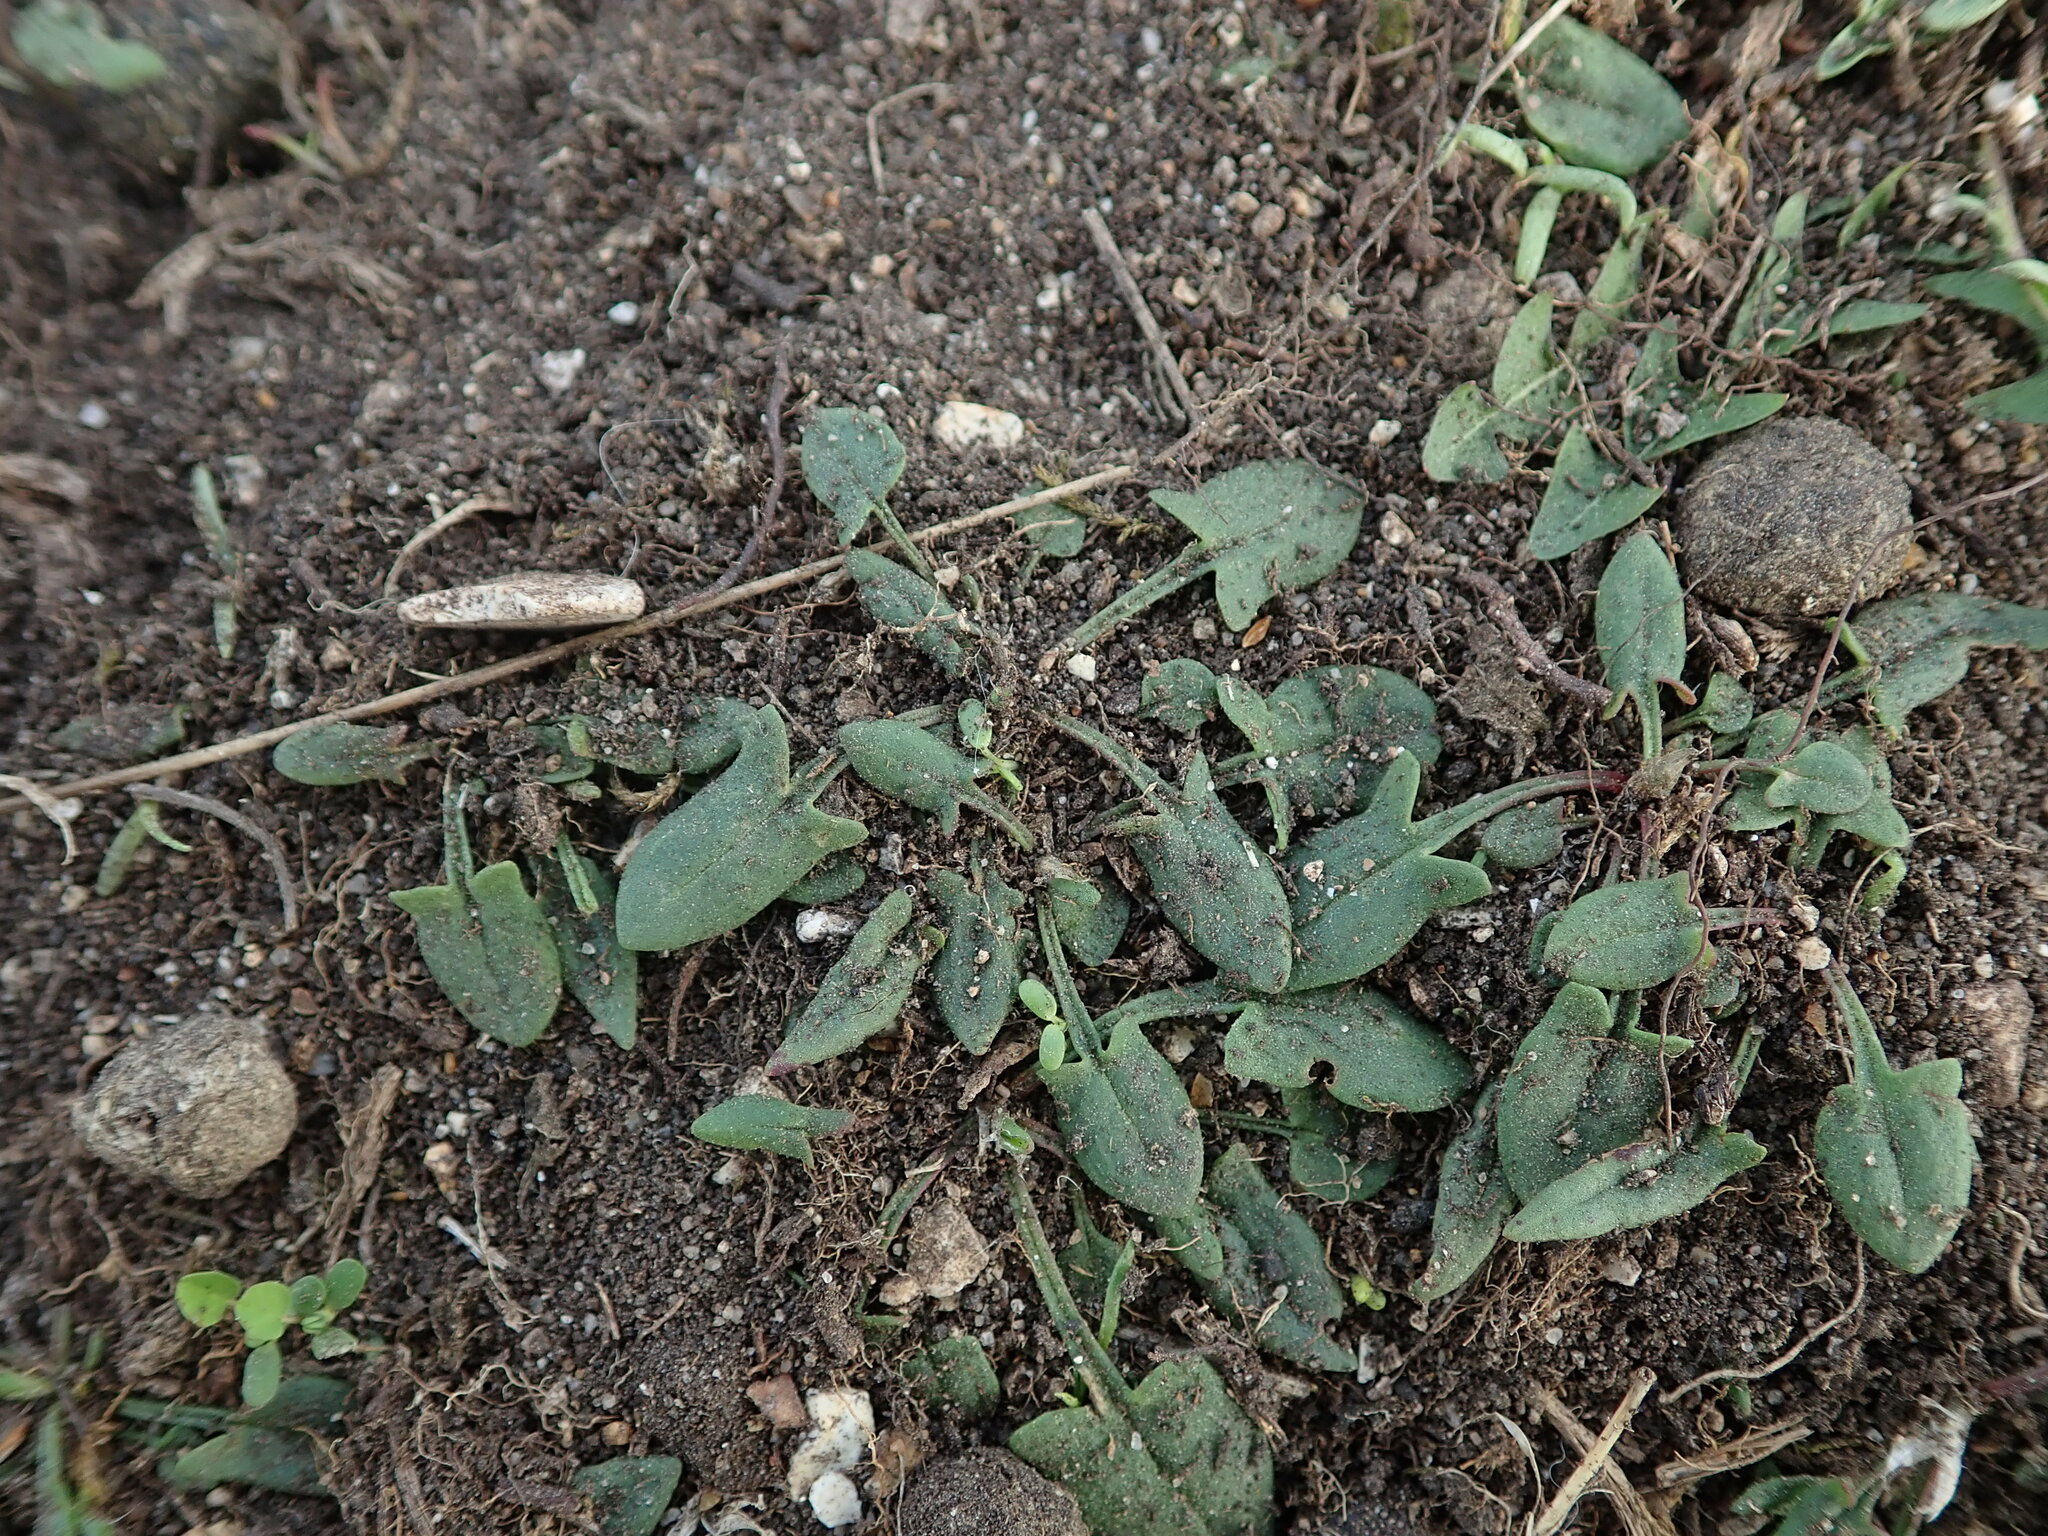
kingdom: Plantae
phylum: Tracheophyta
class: Magnoliopsida
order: Caryophyllales
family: Polygonaceae
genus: Rumex
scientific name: Rumex acetosella
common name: Common sheep sorrel
